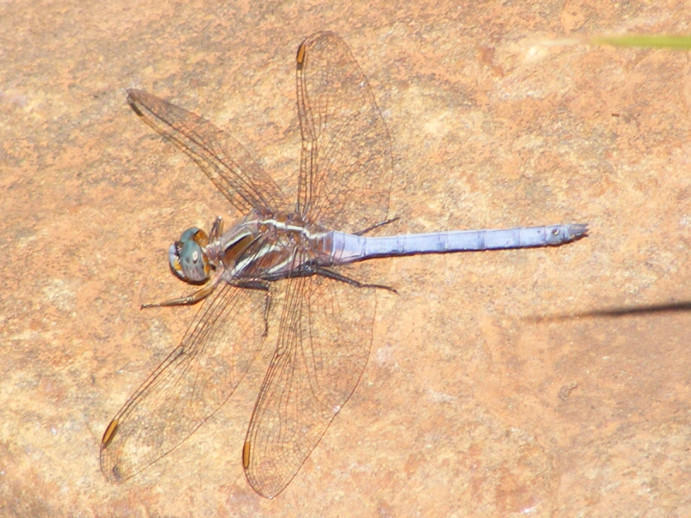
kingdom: Animalia
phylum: Arthropoda
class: Insecta
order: Odonata
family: Libellulidae
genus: Orthetrum
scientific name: Orthetrum caffrum
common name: Two-striped skimmer
